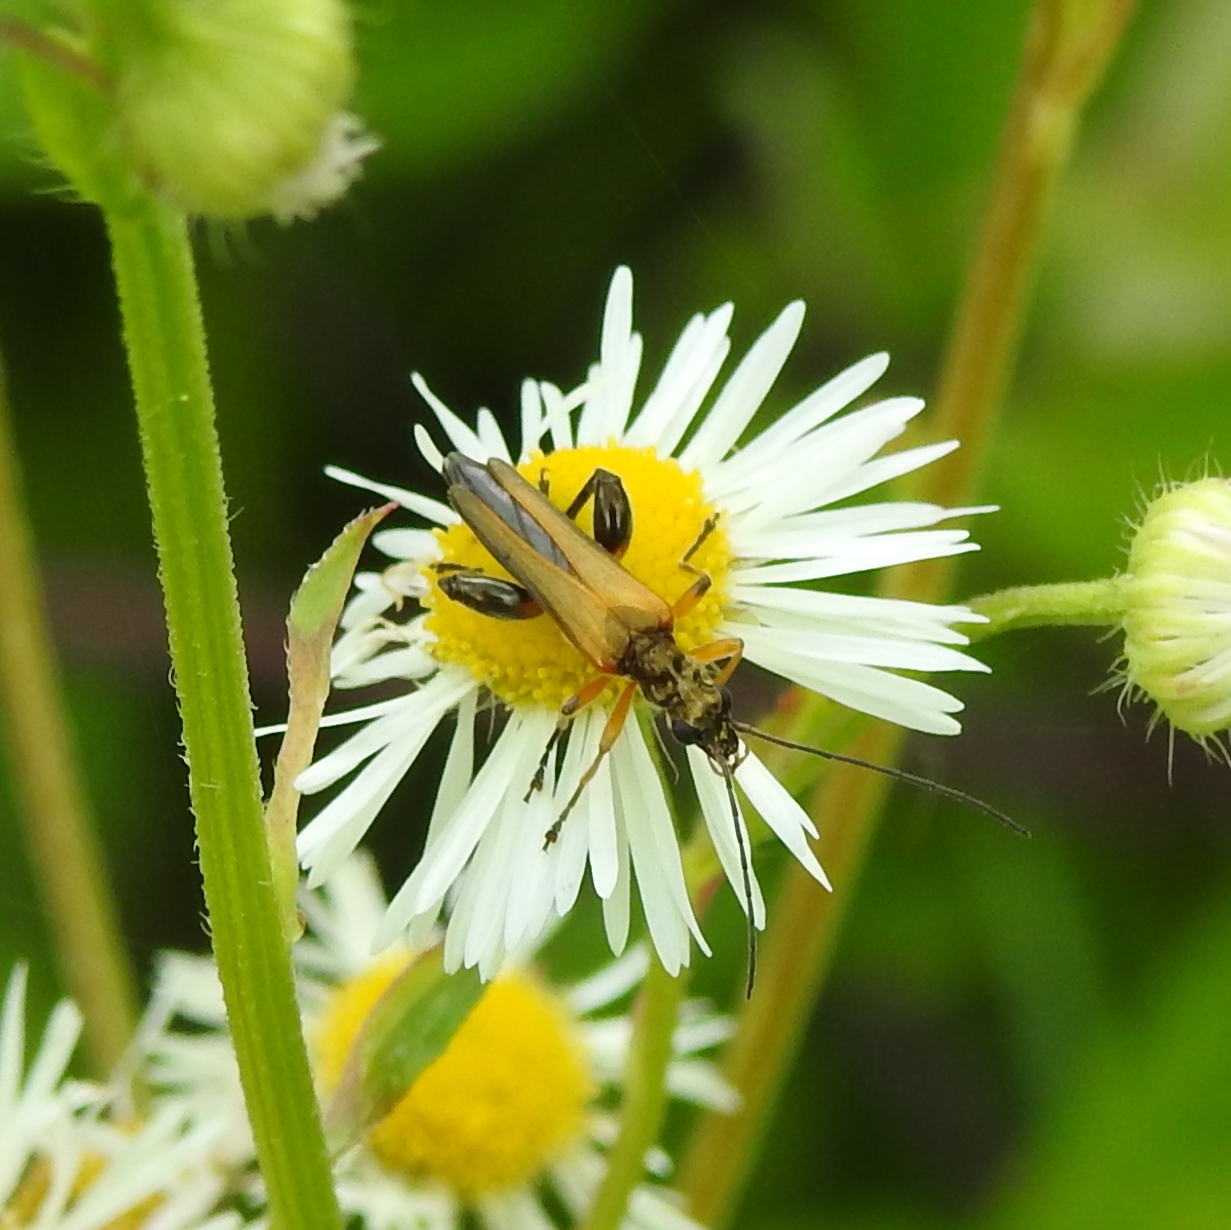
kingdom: Animalia
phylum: Arthropoda
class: Insecta
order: Coleoptera
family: Oedemeridae
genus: Oedemera
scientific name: Oedemera podagrariae
